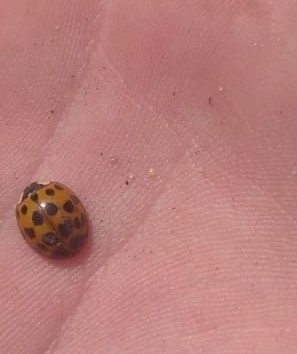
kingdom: Animalia
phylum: Arthropoda
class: Insecta
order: Coleoptera
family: Coccinellidae
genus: Harmonia
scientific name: Harmonia axyridis
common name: Harlequin ladybird
